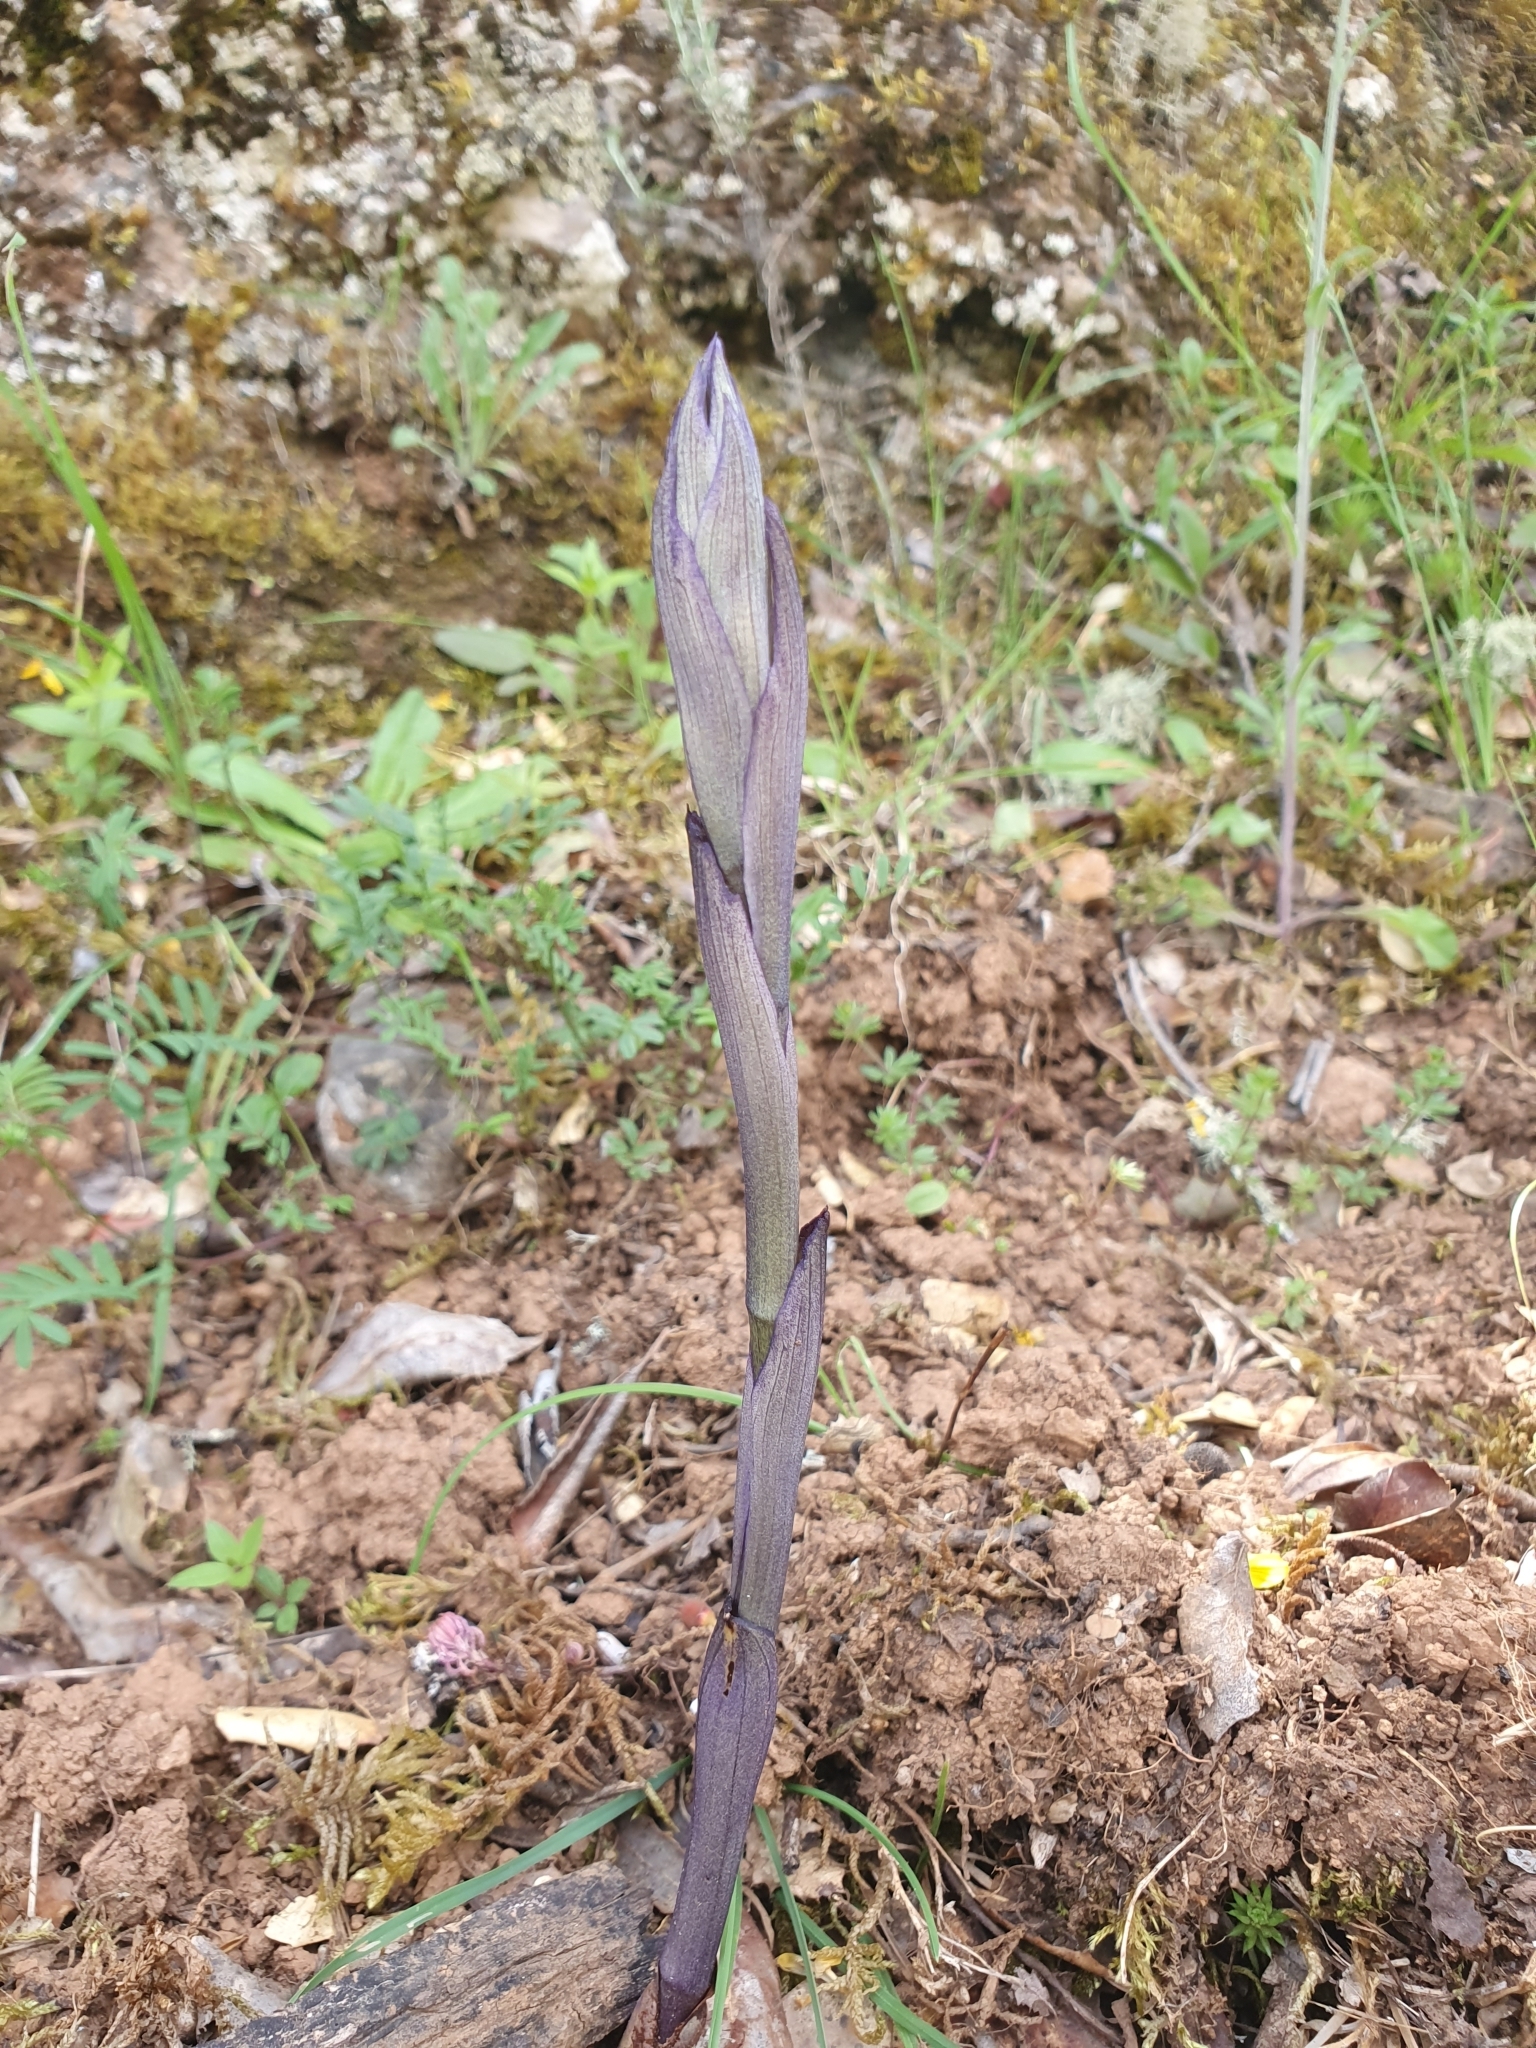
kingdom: Plantae
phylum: Tracheophyta
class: Liliopsida
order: Asparagales
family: Orchidaceae
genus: Limodorum
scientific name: Limodorum abortivum
